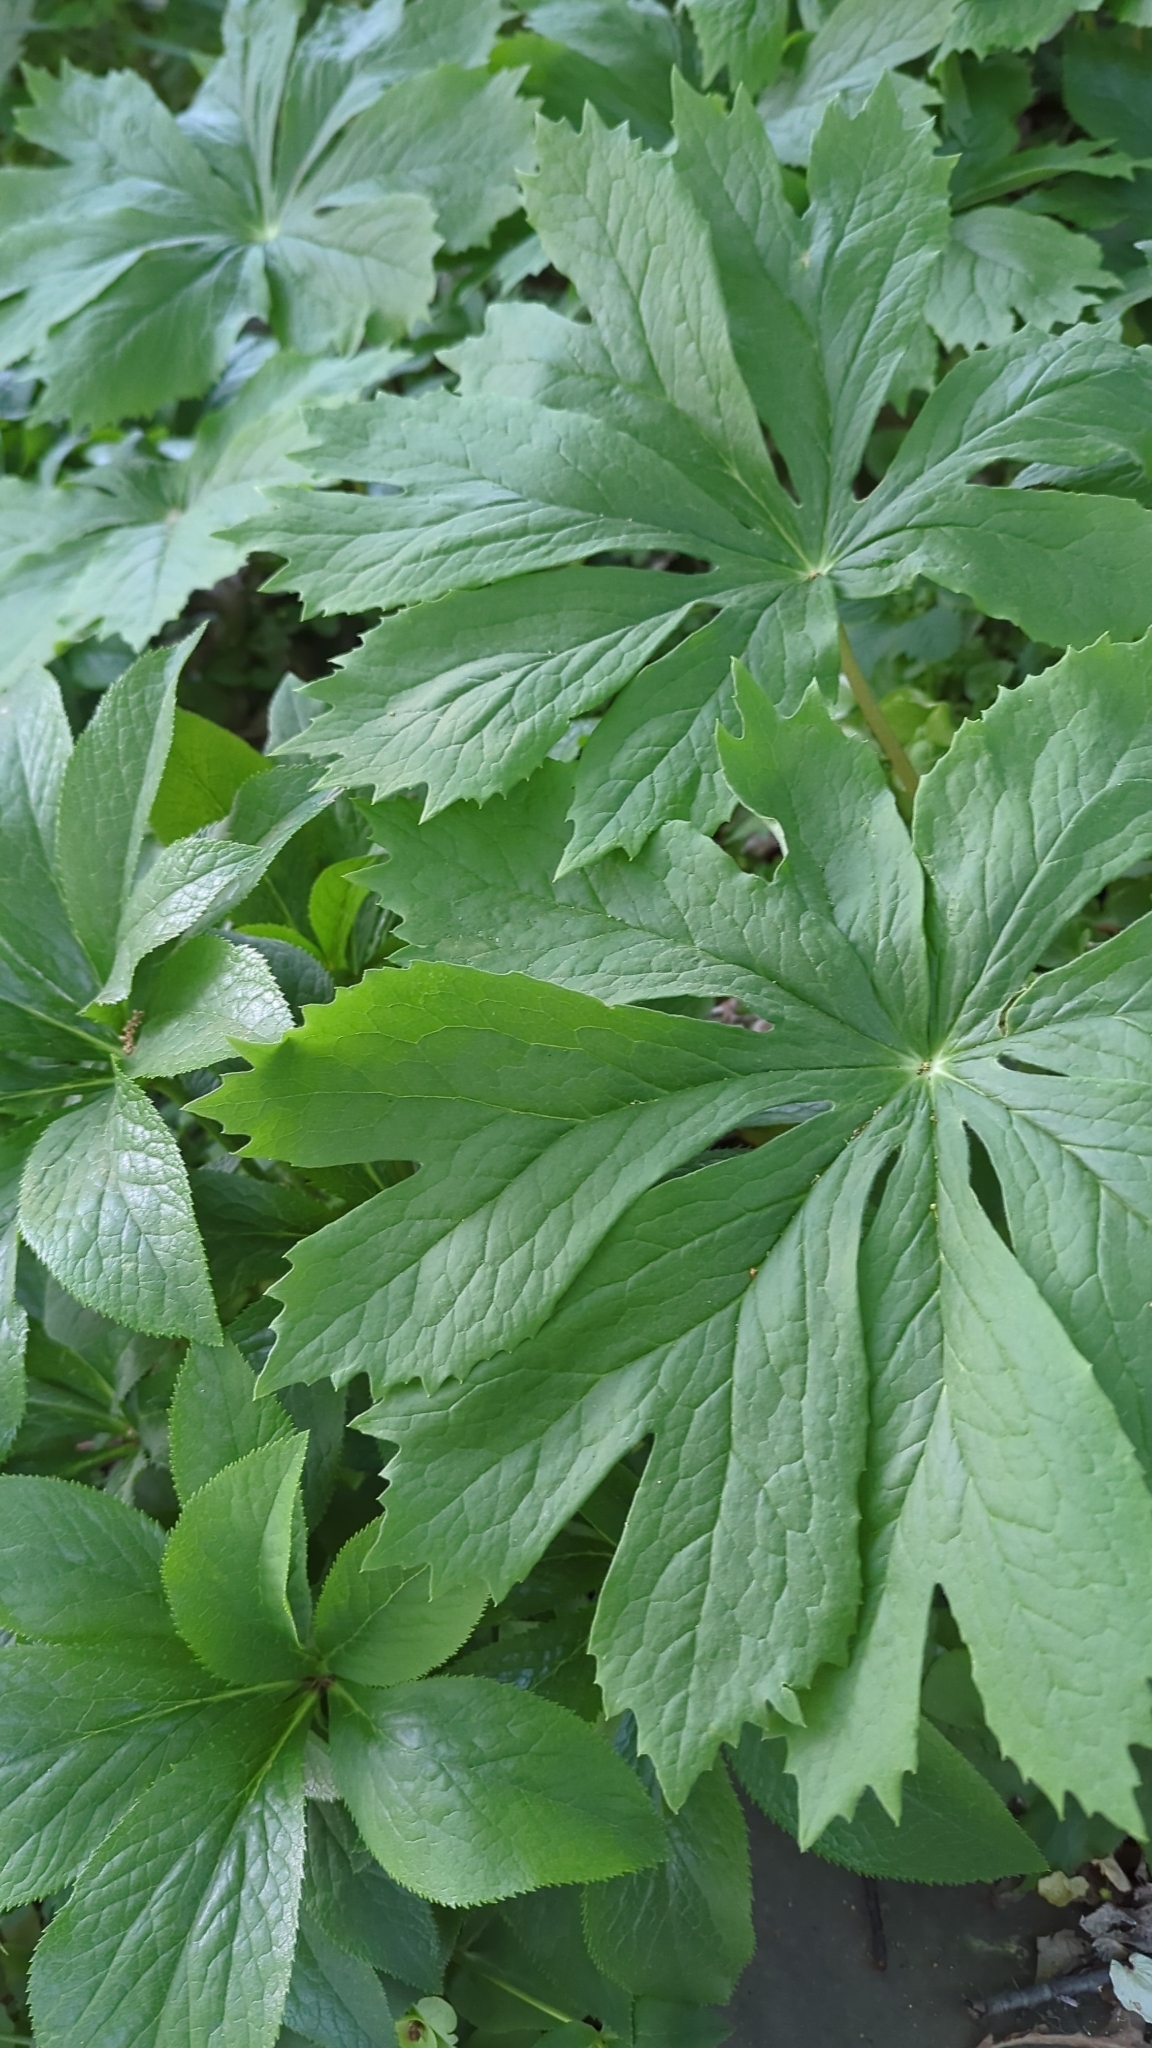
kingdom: Plantae
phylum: Tracheophyta
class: Magnoliopsida
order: Ranunculales
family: Berberidaceae
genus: Podophyllum
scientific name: Podophyllum peltatum
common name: Wild mandrake
